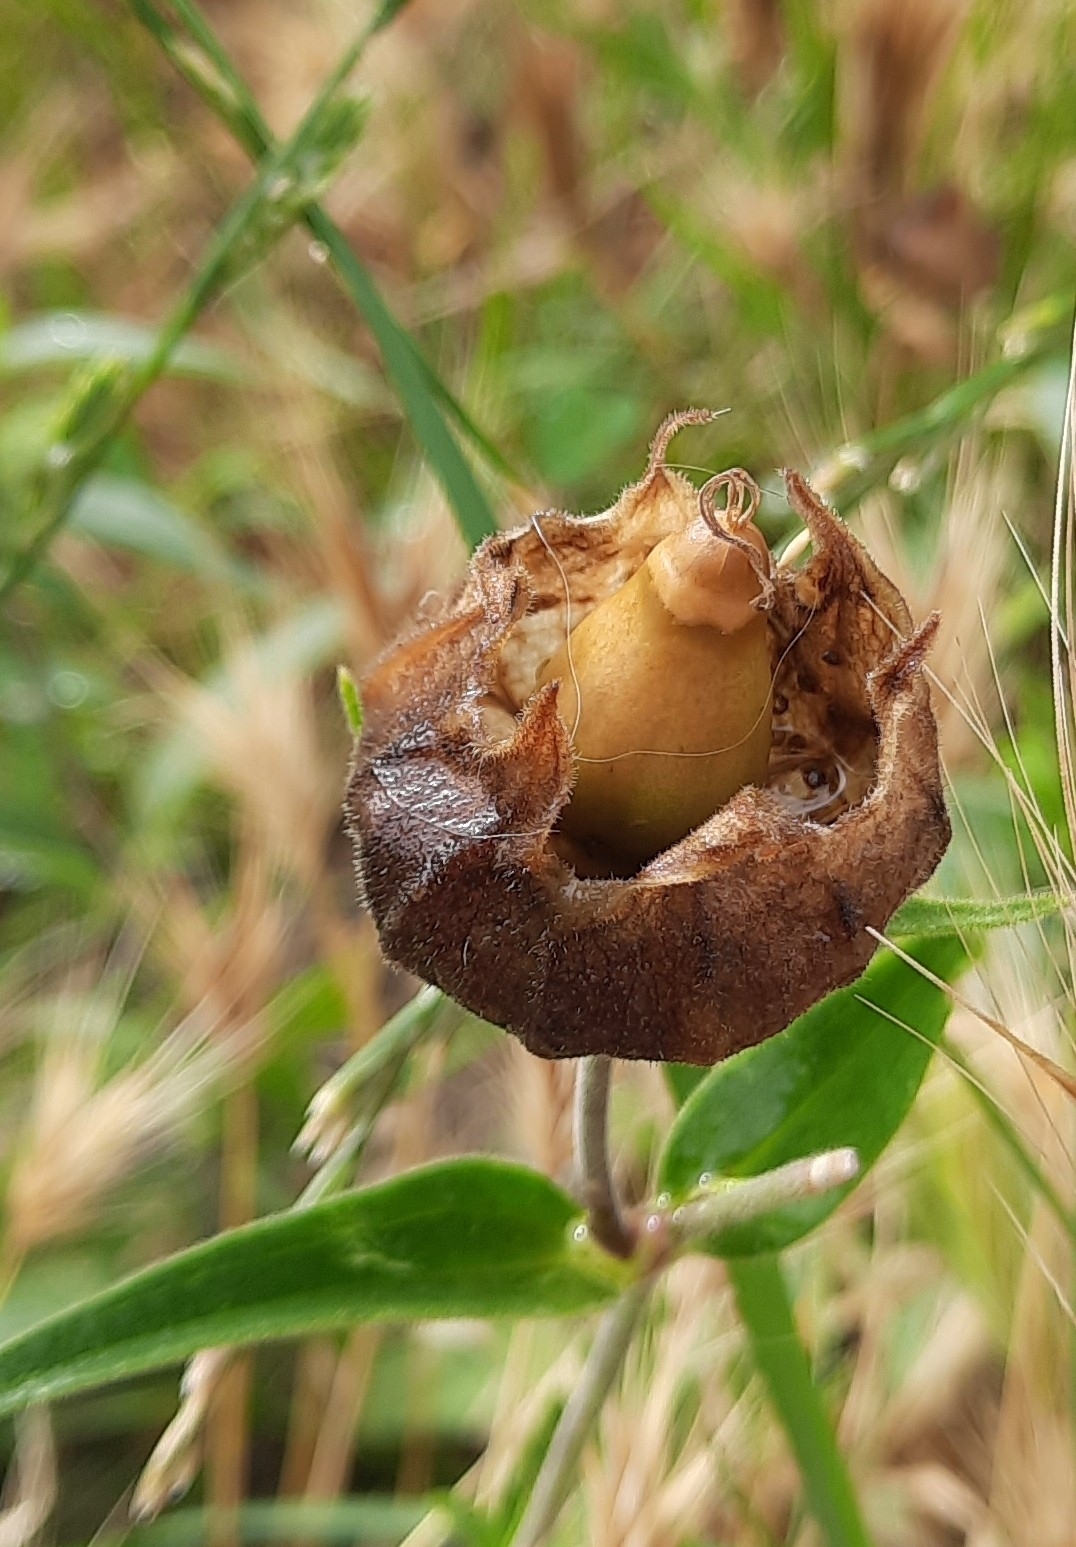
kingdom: Plantae
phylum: Tracheophyta
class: Magnoliopsida
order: Caryophyllales
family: Caryophyllaceae
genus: Silene
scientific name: Silene latifolia
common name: White campion
